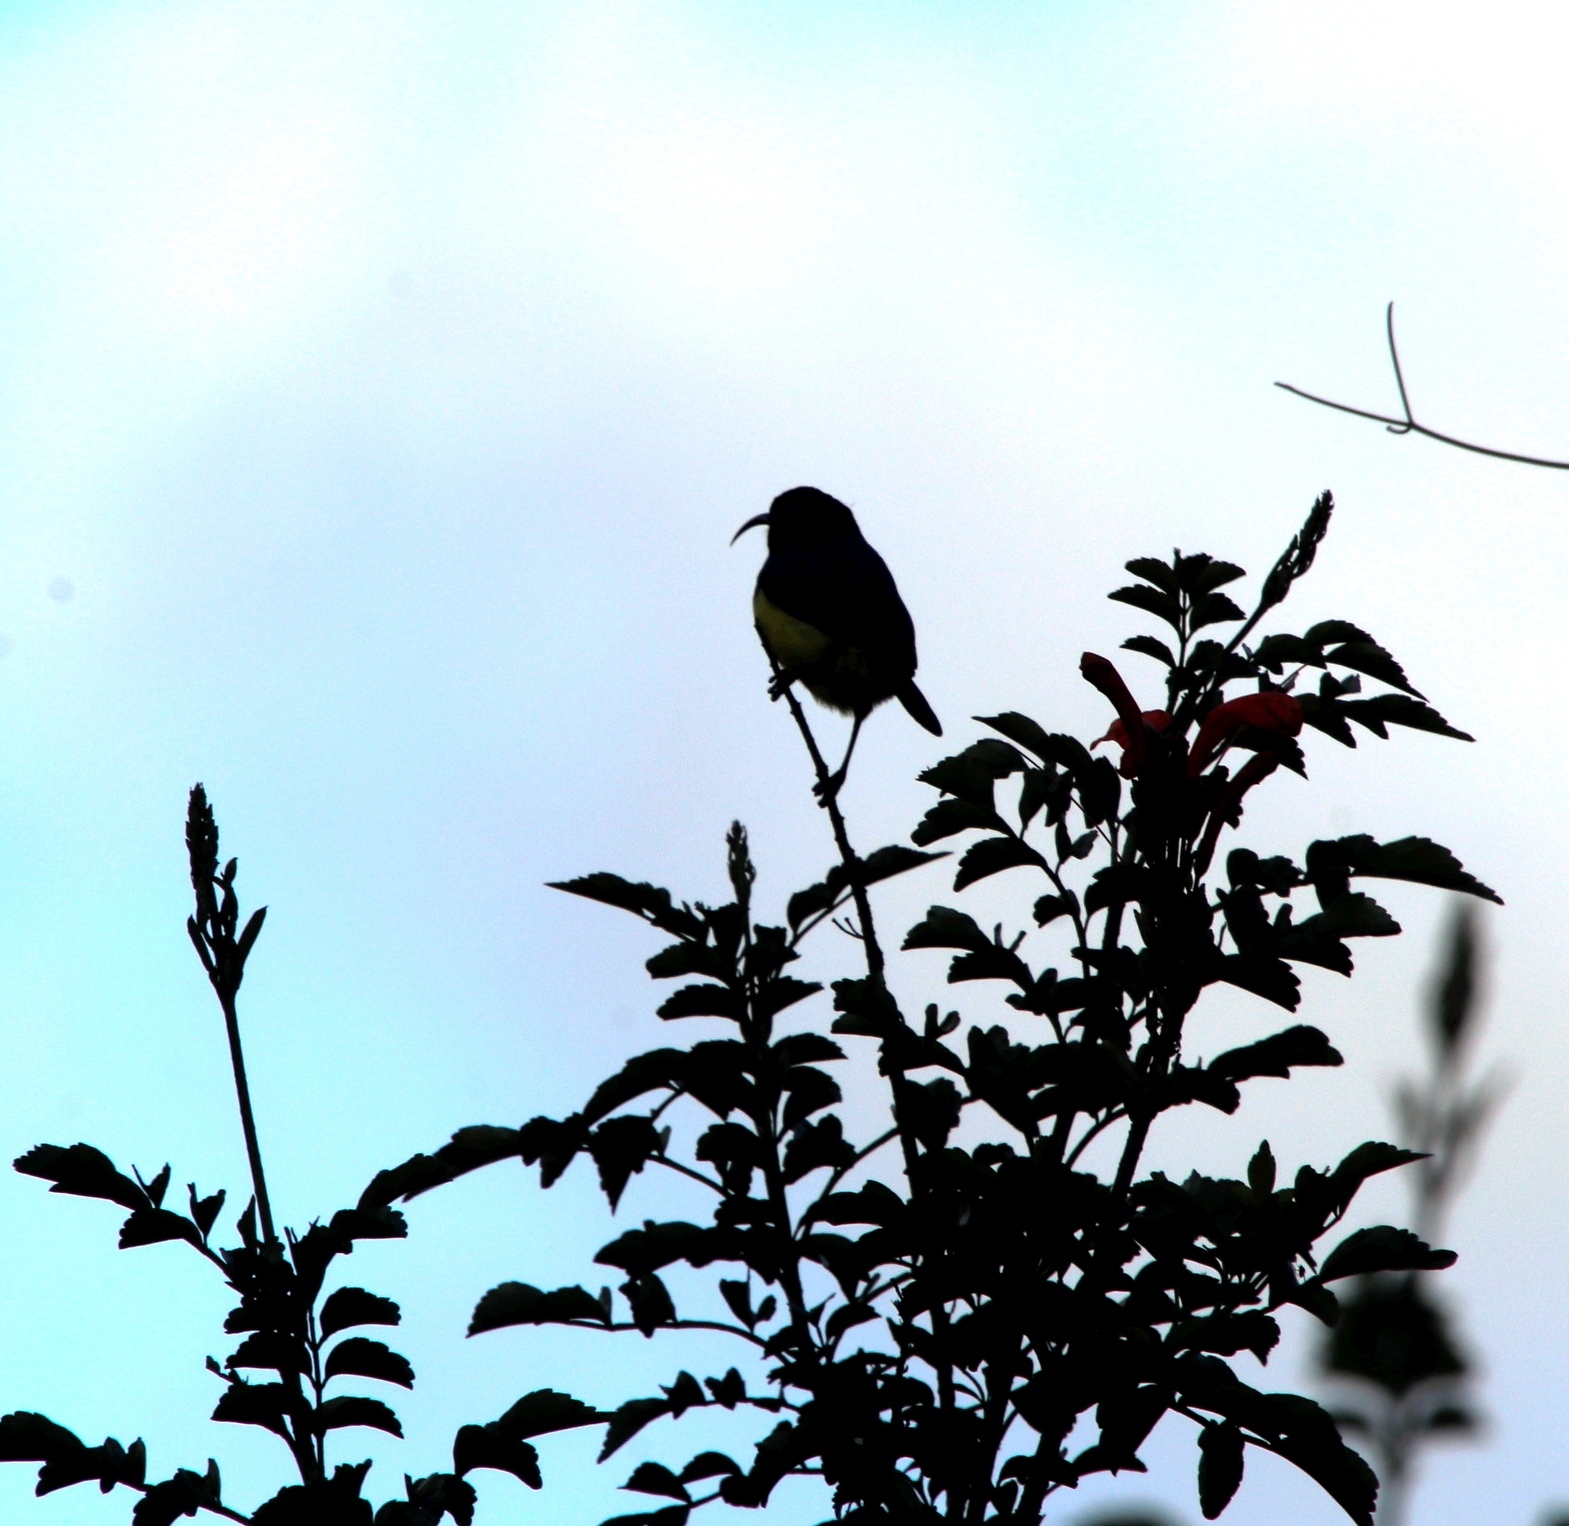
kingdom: Animalia
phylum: Chordata
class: Aves
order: Passeriformes
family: Nectariniidae
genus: Cinnyris
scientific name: Cinnyris venustus
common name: Variable sunbird
